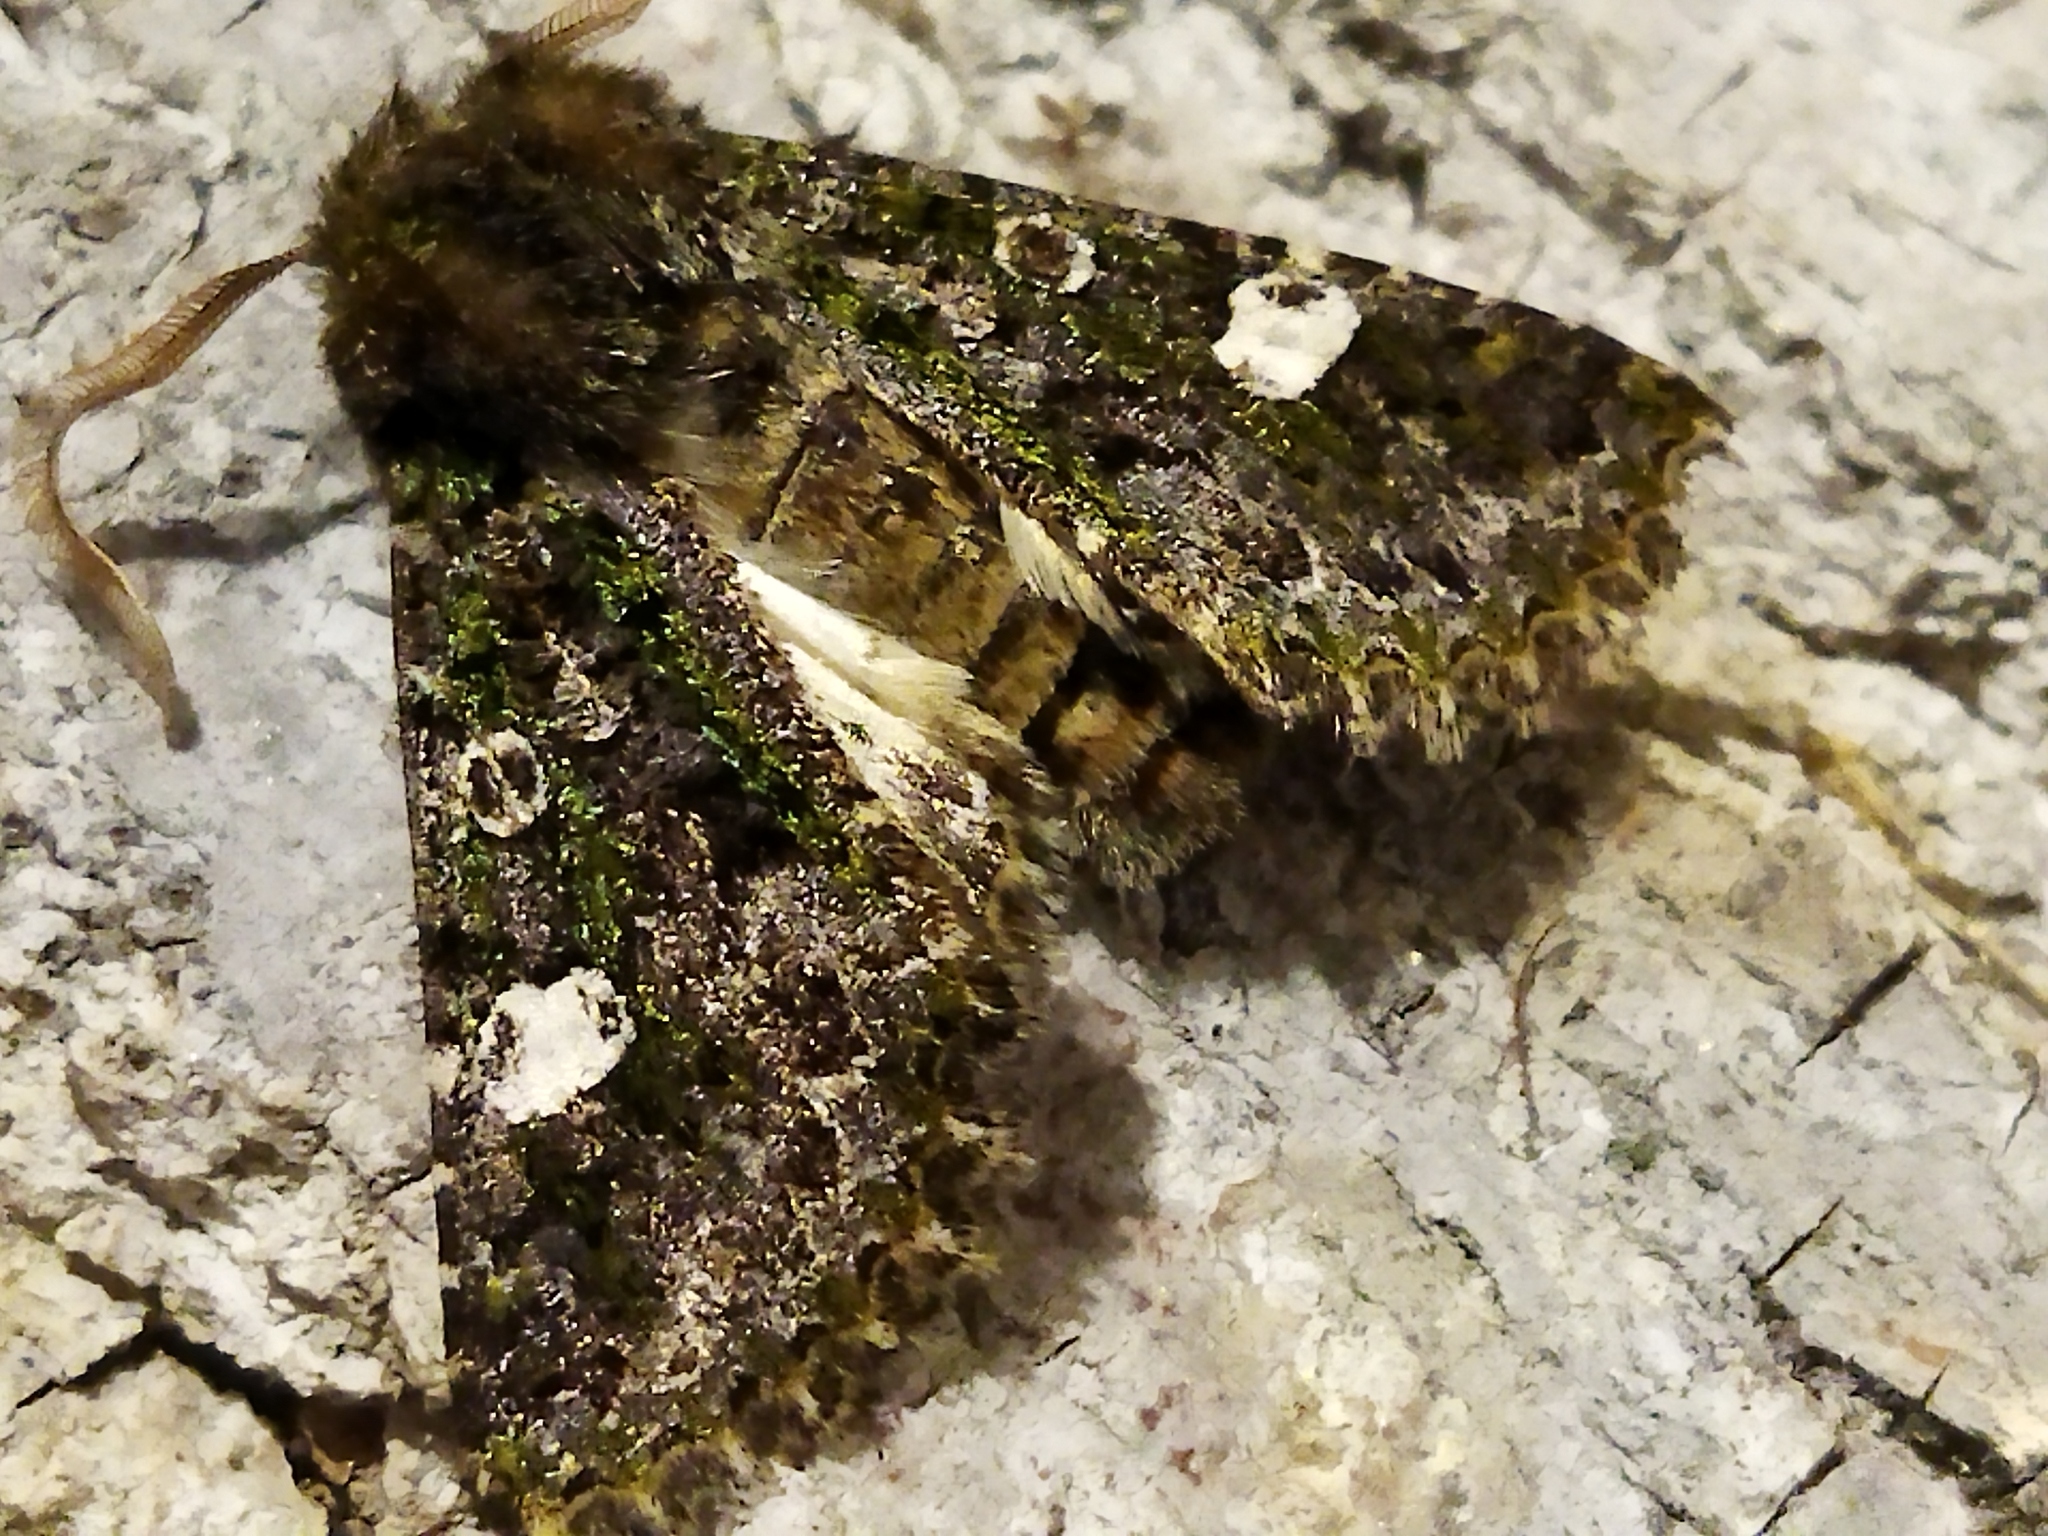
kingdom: Animalia
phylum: Arthropoda
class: Insecta
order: Lepidoptera
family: Noctuidae
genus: Valeria
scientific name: Valeria oleagina
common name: Green-brindled dot
